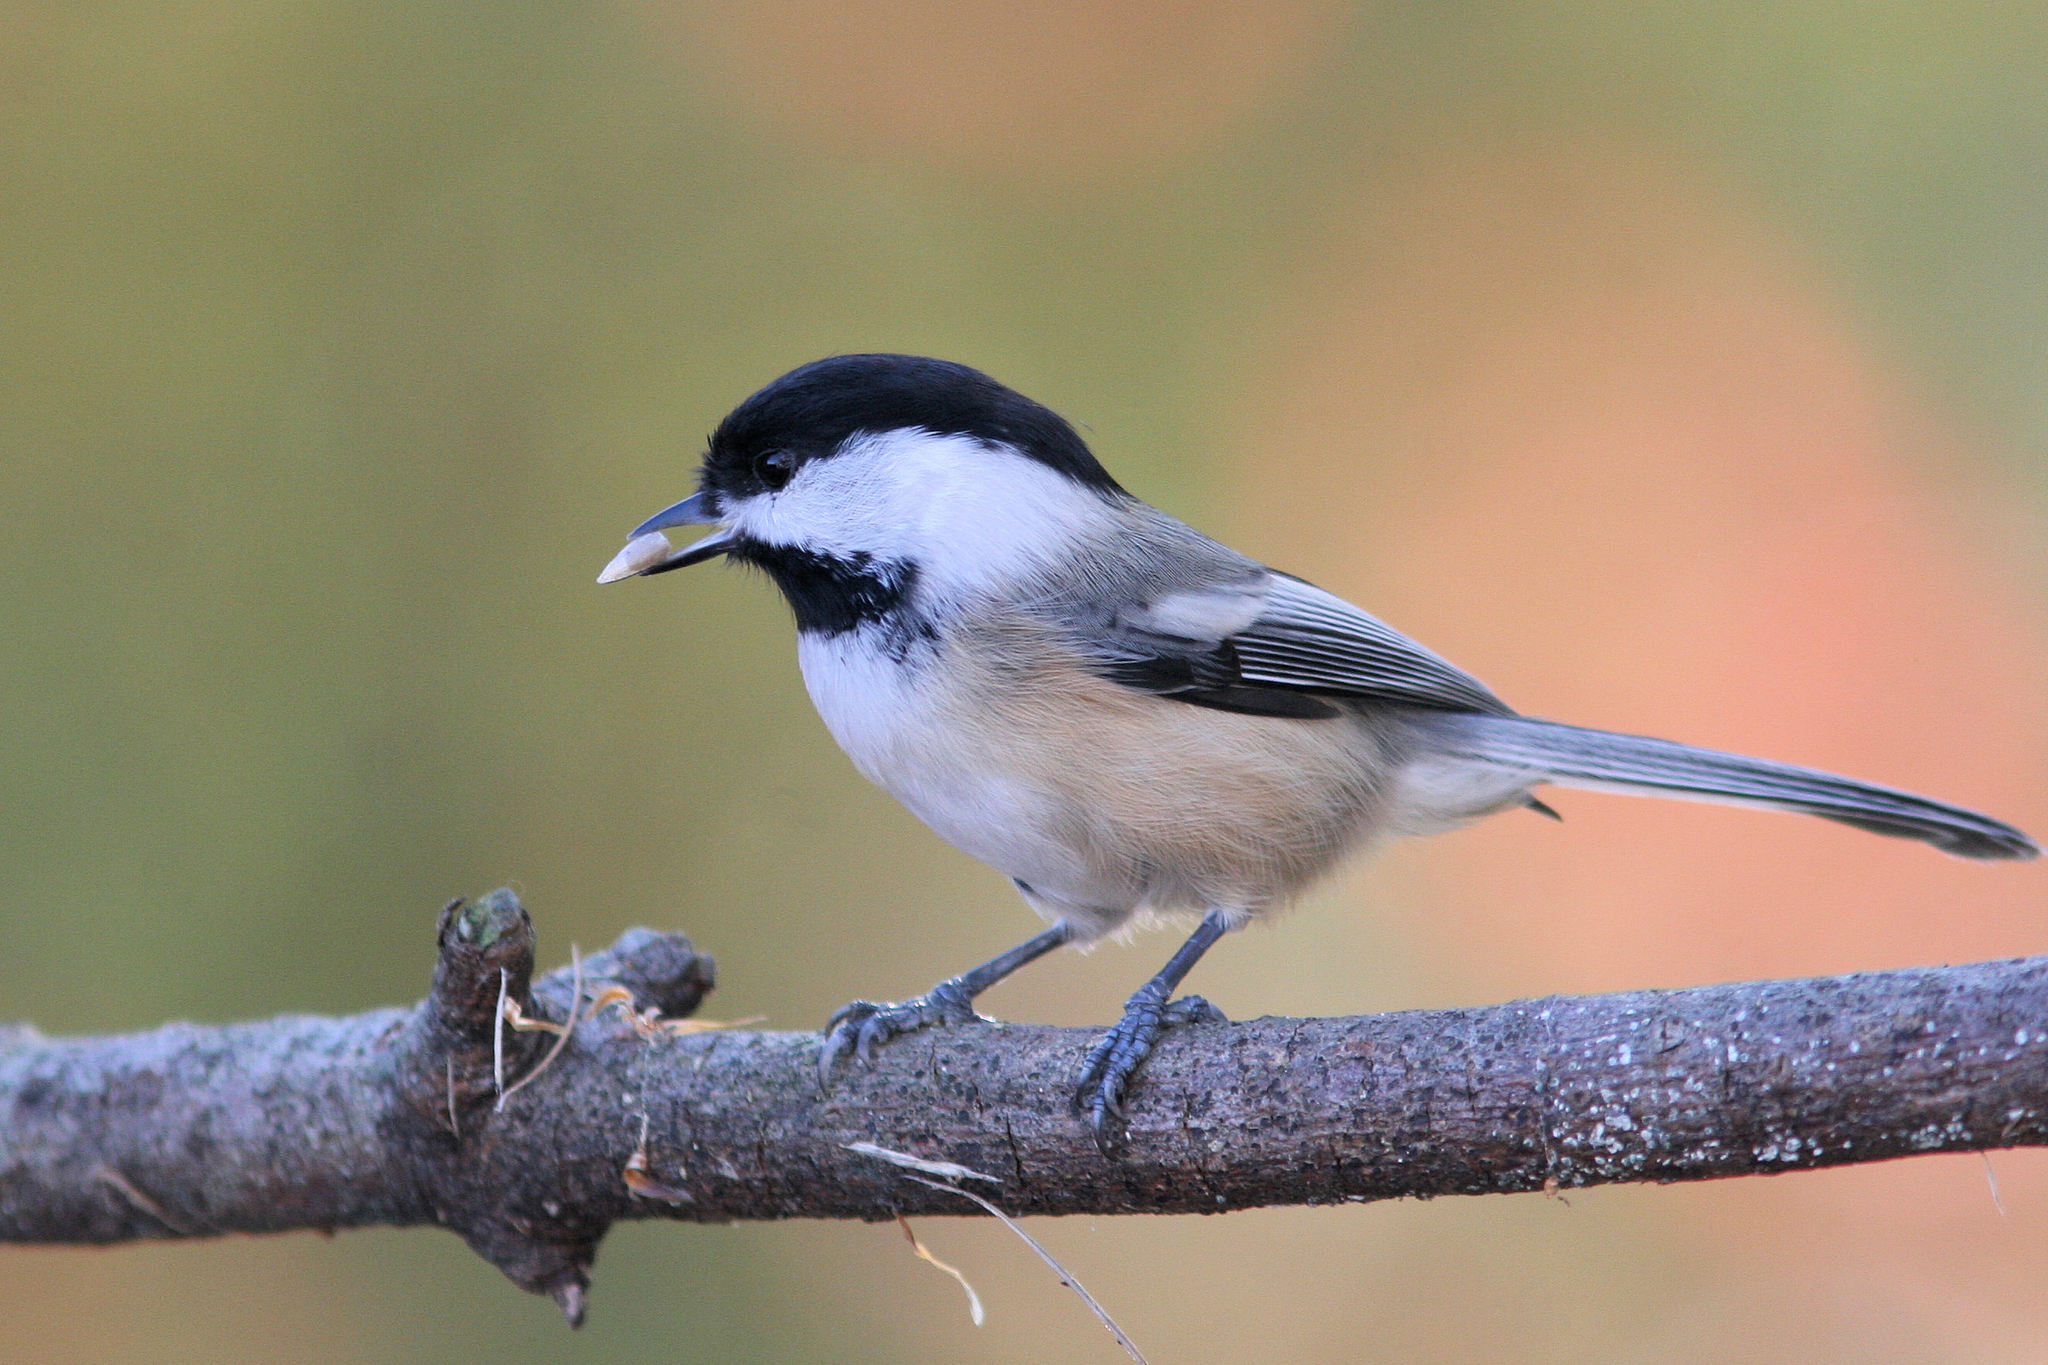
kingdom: Animalia
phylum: Chordata
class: Aves
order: Passeriformes
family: Paridae
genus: Poecile
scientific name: Poecile atricapillus
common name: Black-capped chickadee
